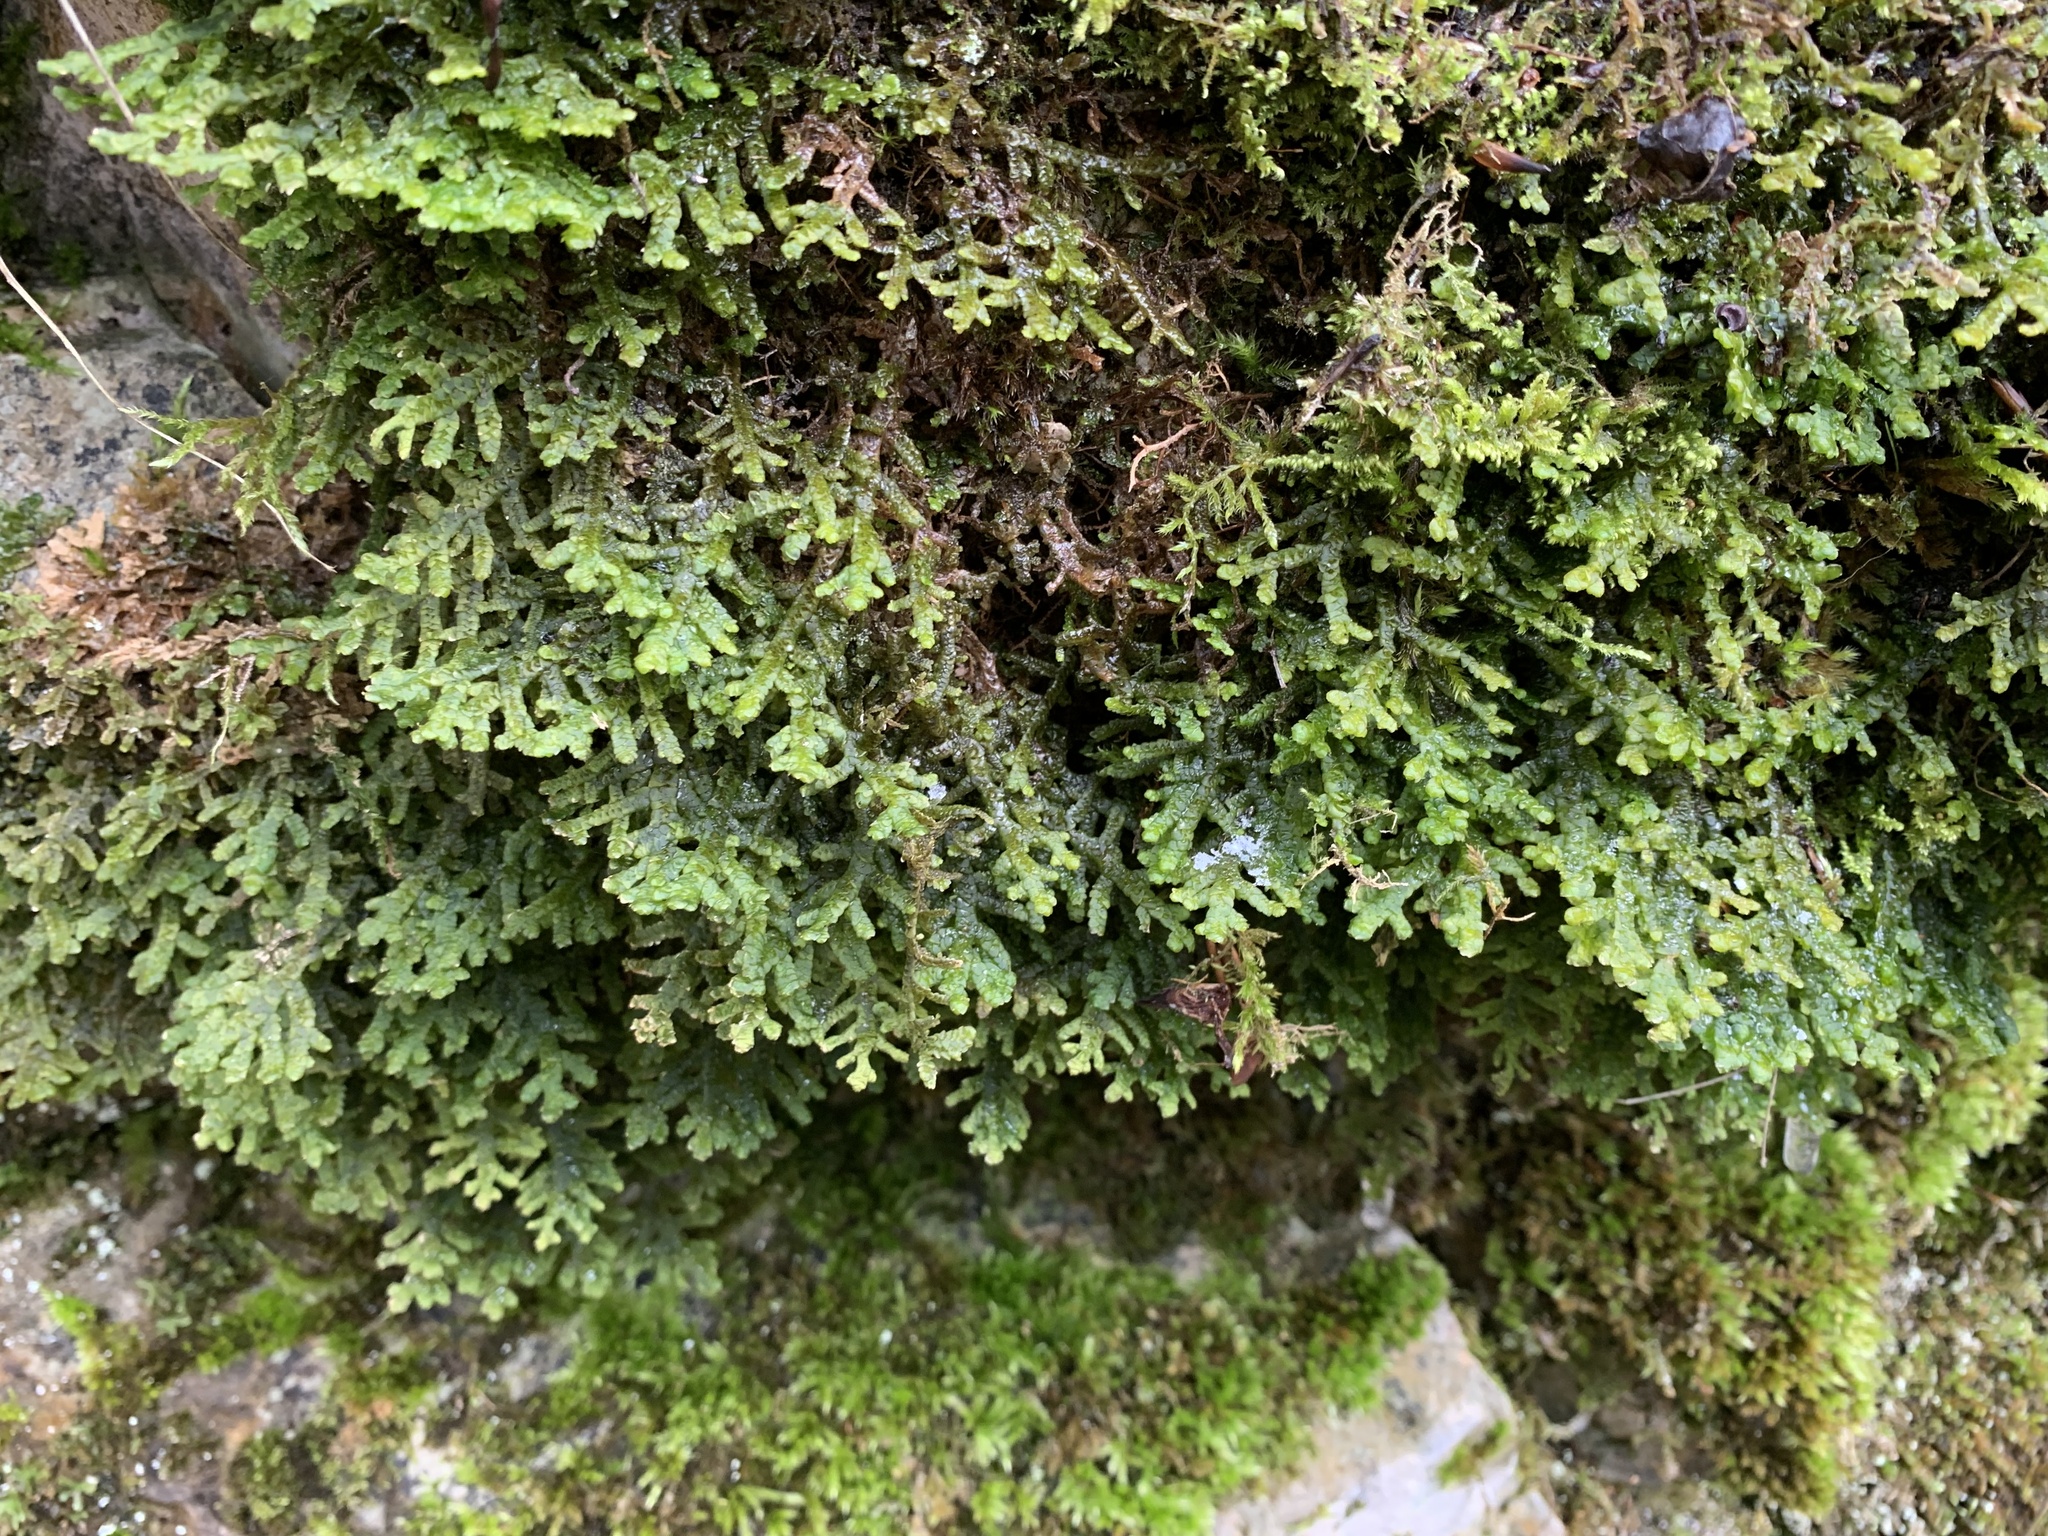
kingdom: Plantae
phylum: Marchantiophyta
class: Jungermanniopsida
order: Porellales
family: Porellaceae
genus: Porella
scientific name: Porella platyphylla
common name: Wall scalewort
